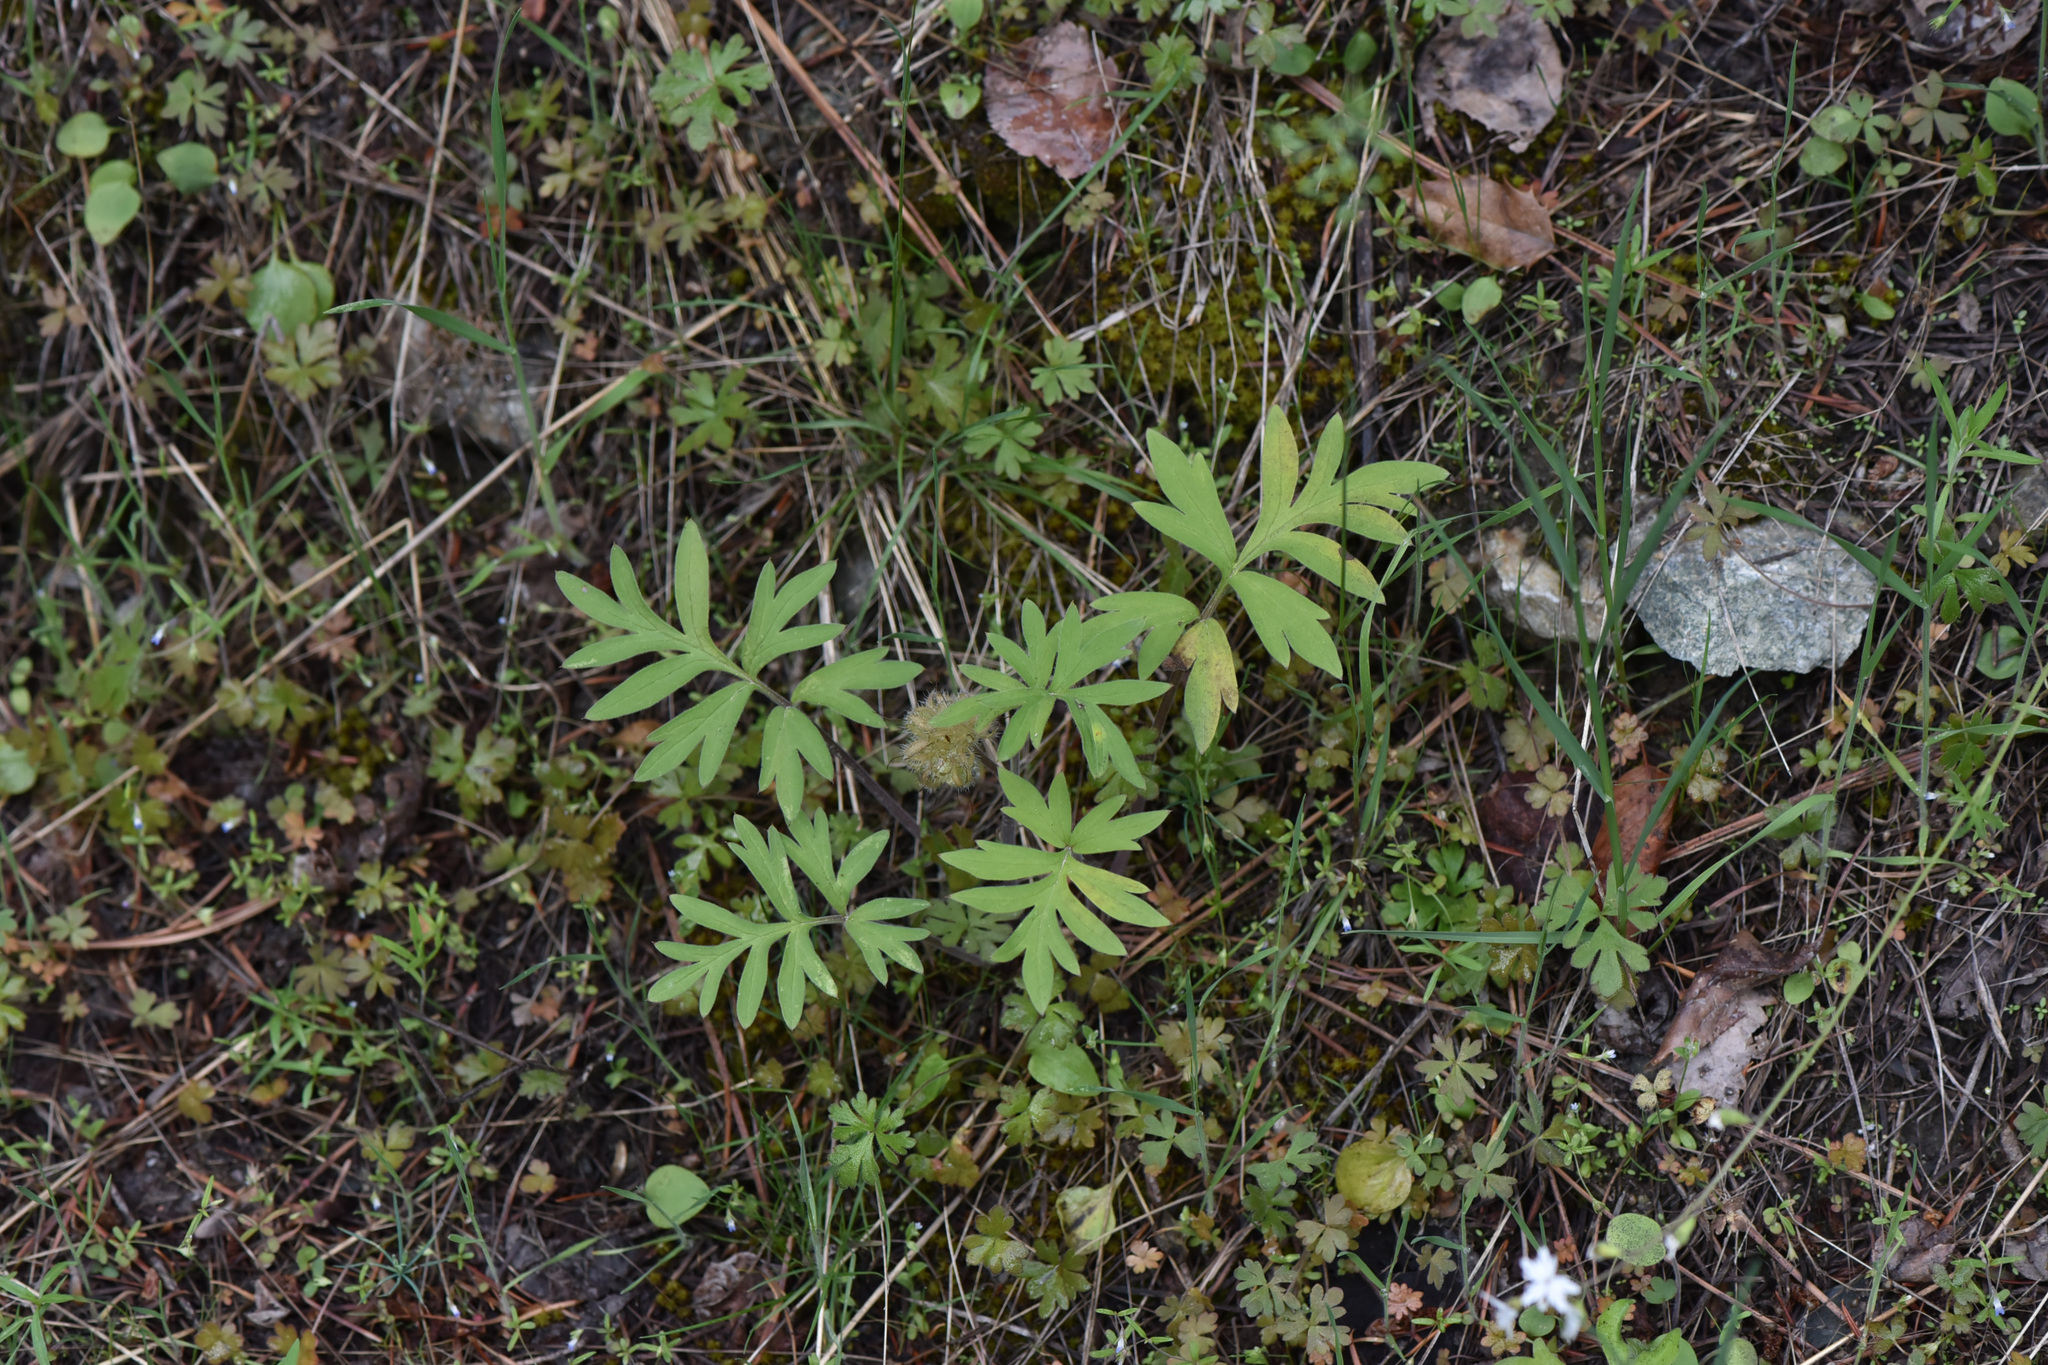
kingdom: Plantae
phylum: Tracheophyta
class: Magnoliopsida
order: Boraginales
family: Hydrophyllaceae
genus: Hydrophyllum
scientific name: Hydrophyllum capitatum
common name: Woollen-breeches
